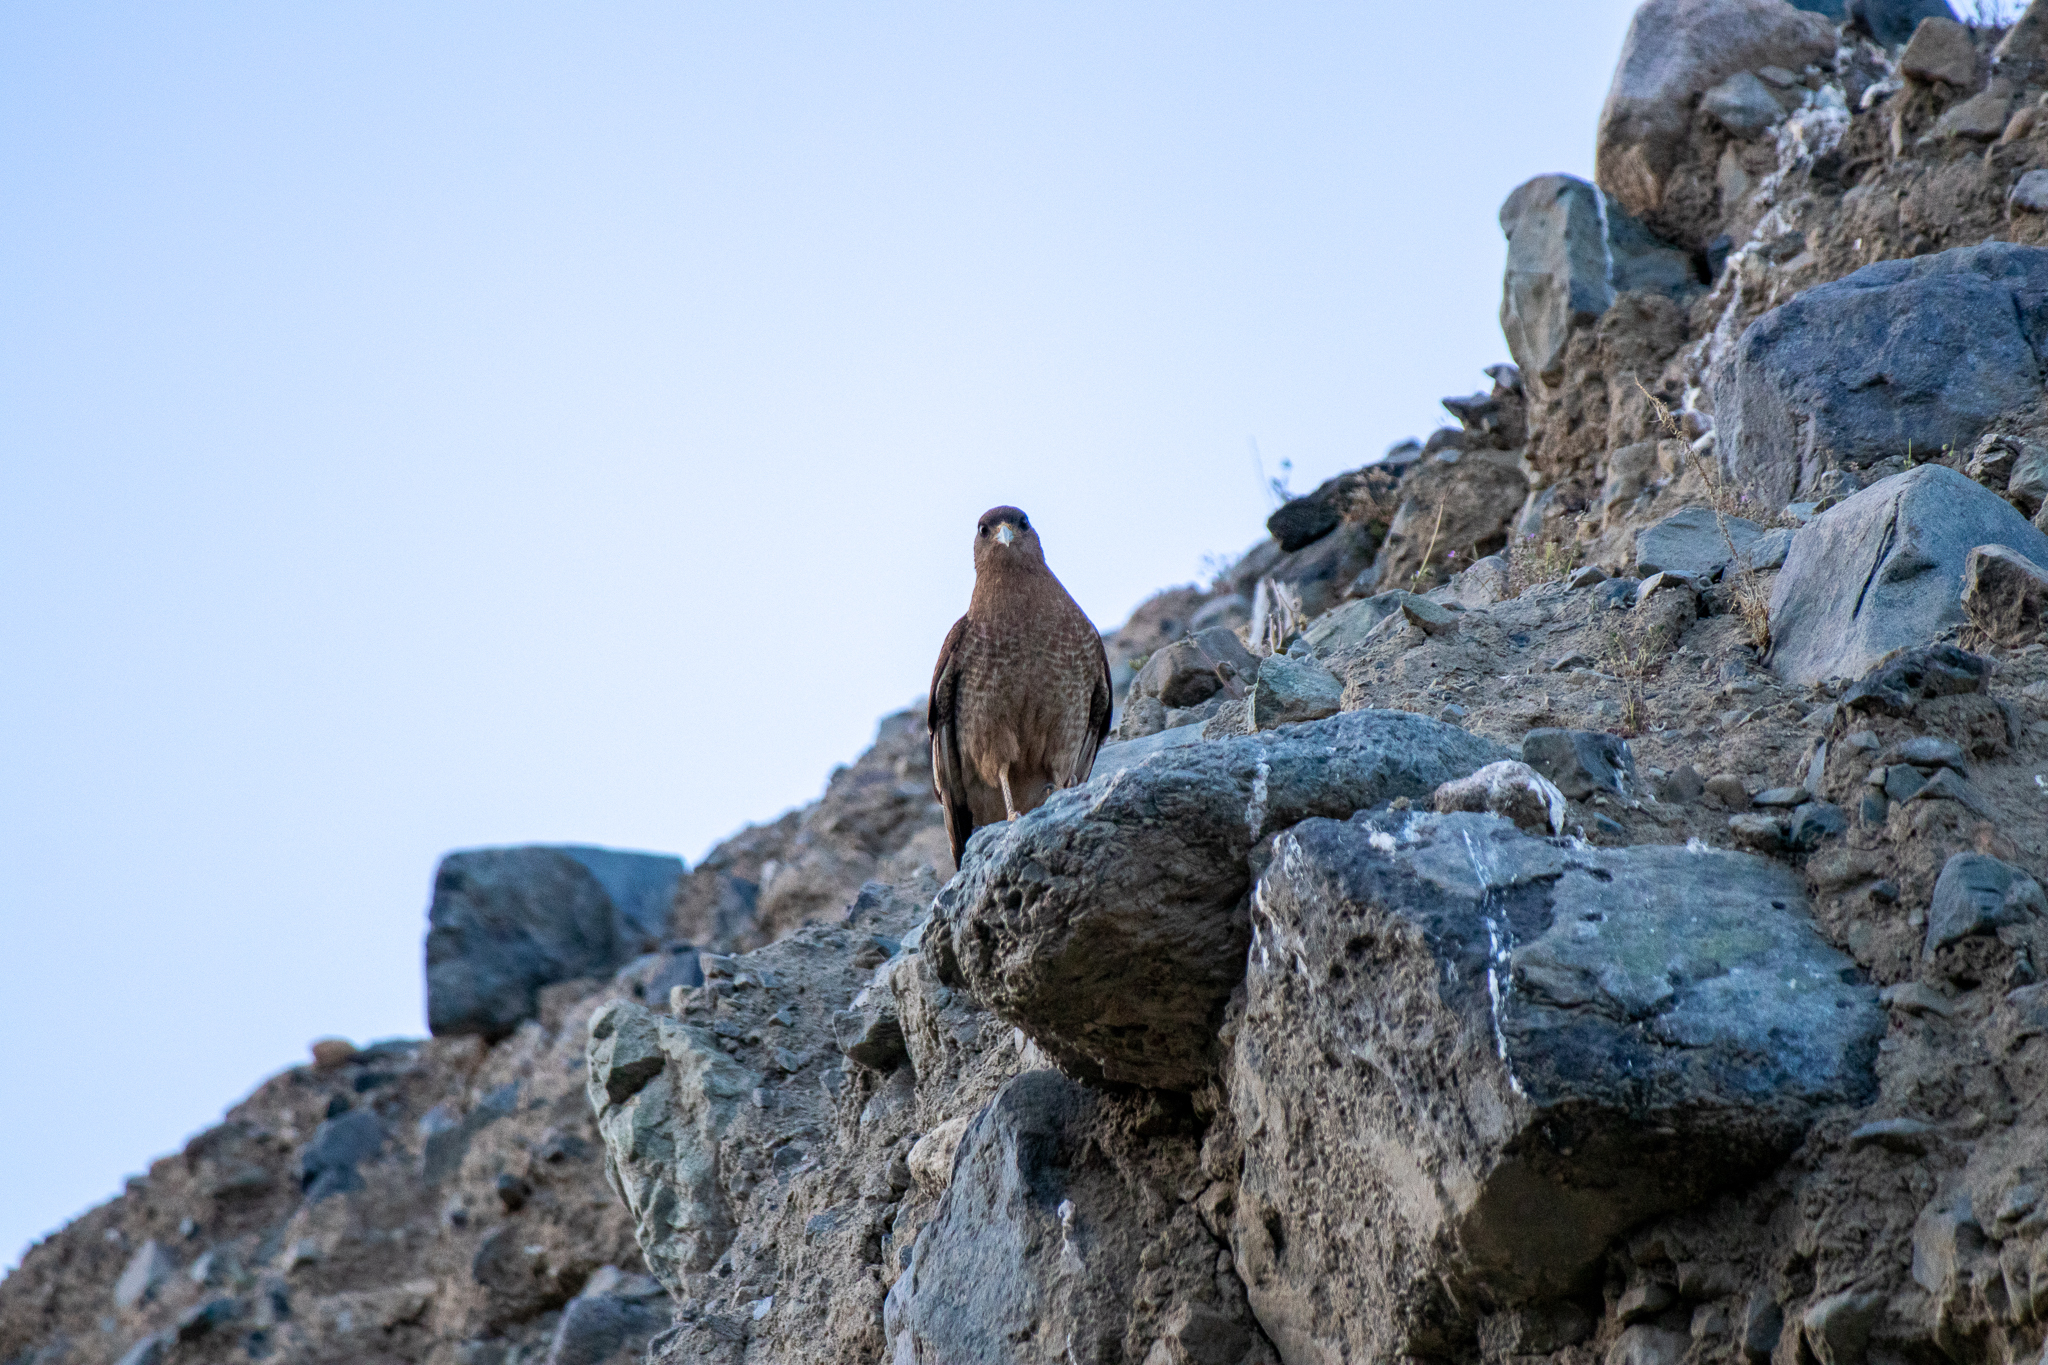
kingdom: Animalia
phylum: Chordata
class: Aves
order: Falconiformes
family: Falconidae
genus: Daptrius
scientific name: Daptrius
